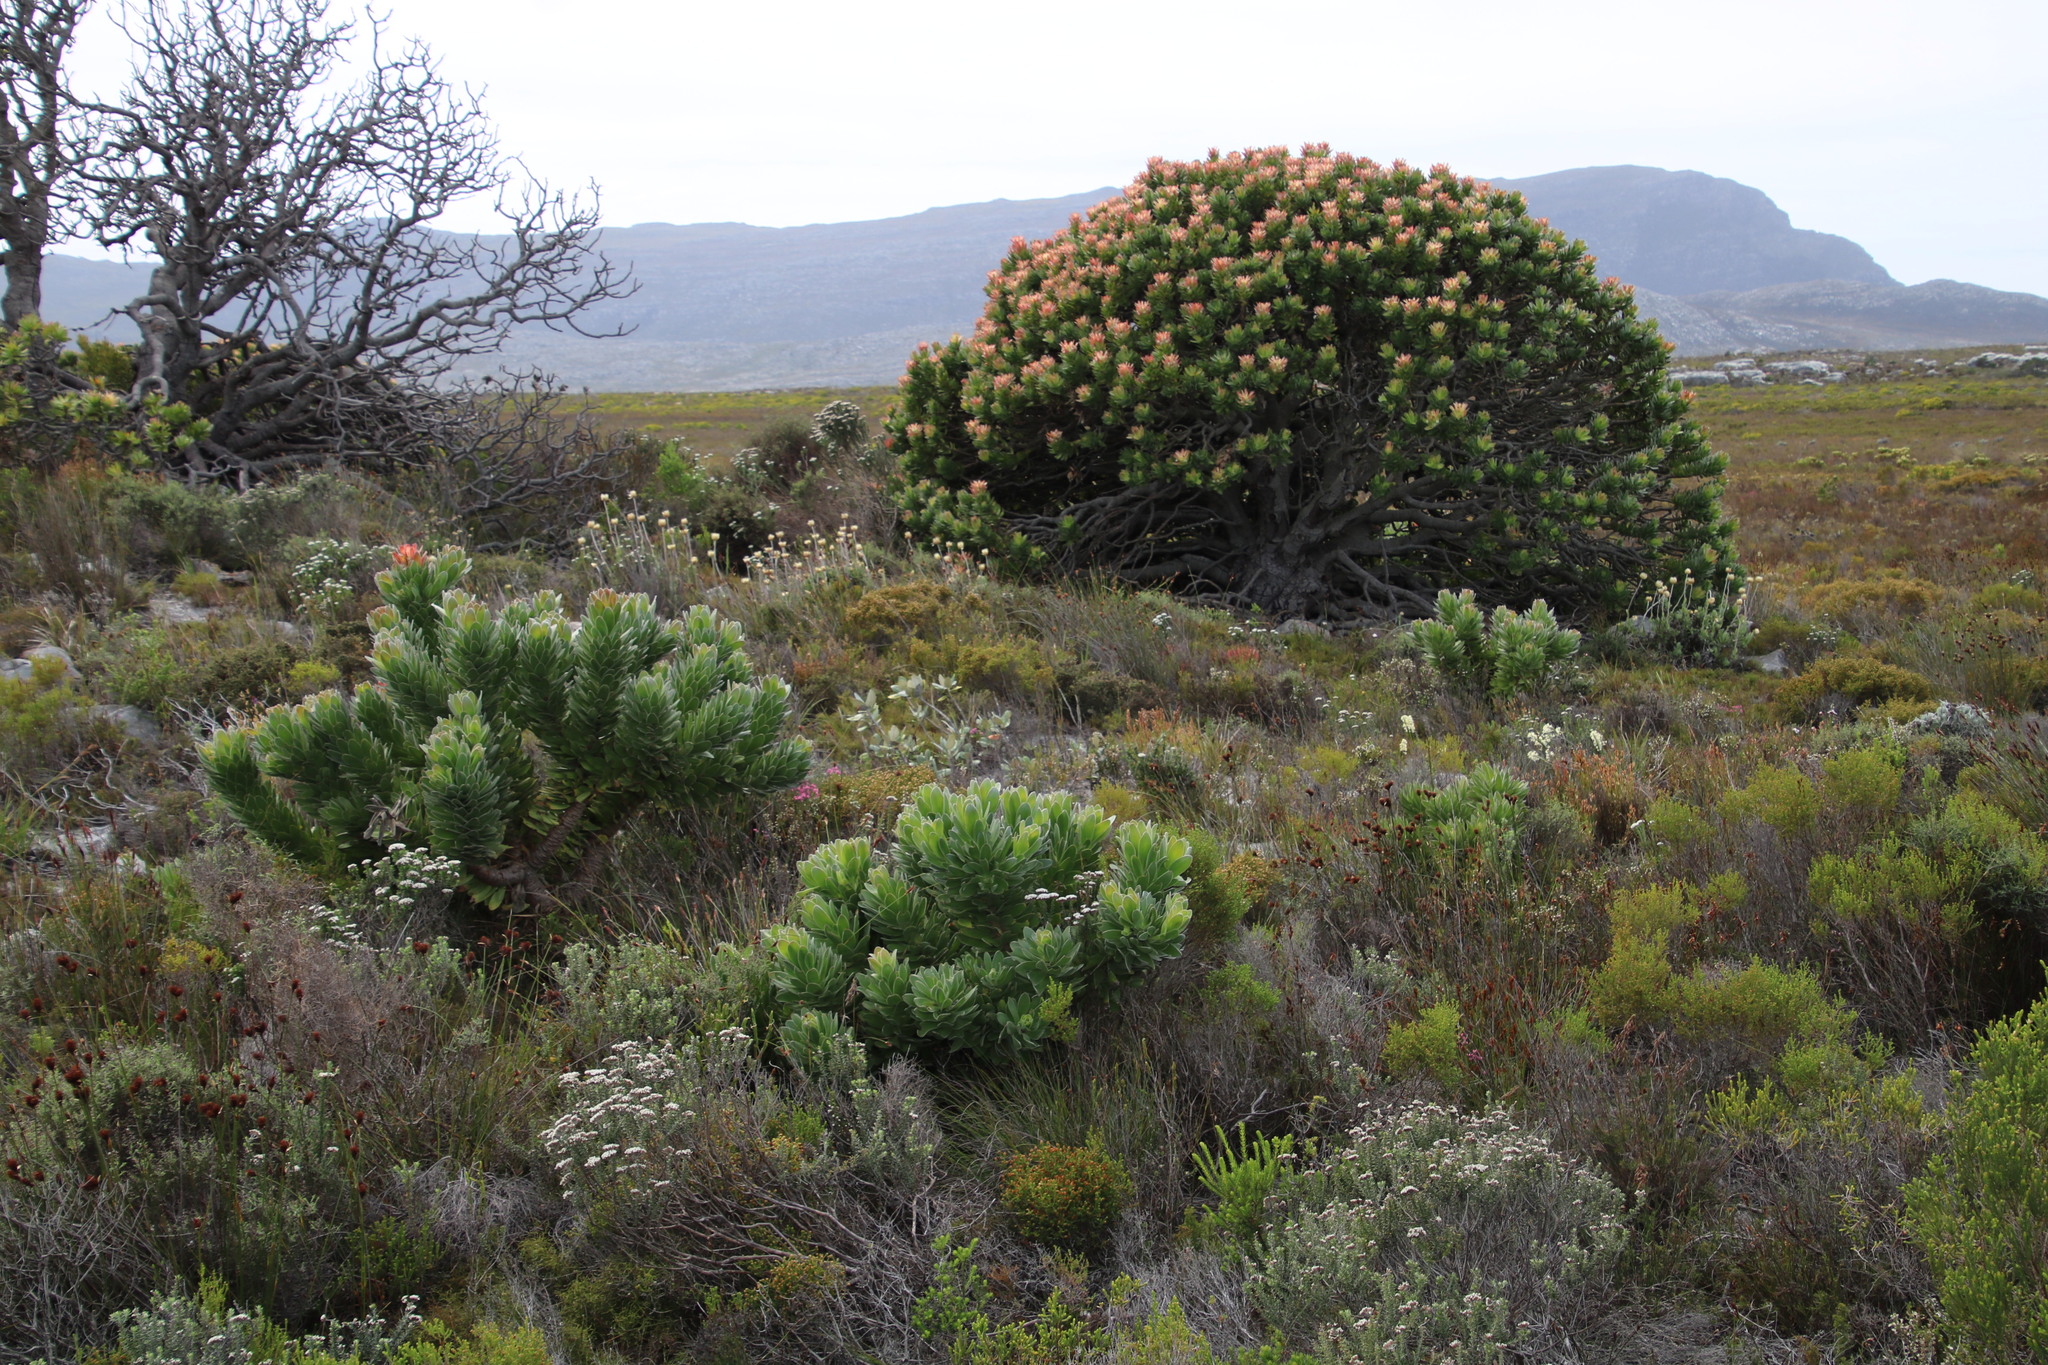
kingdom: Plantae
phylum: Tracheophyta
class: Magnoliopsida
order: Proteales
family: Proteaceae
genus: Mimetes
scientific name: Mimetes fimbriifolius
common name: Fringed bottlebrush
